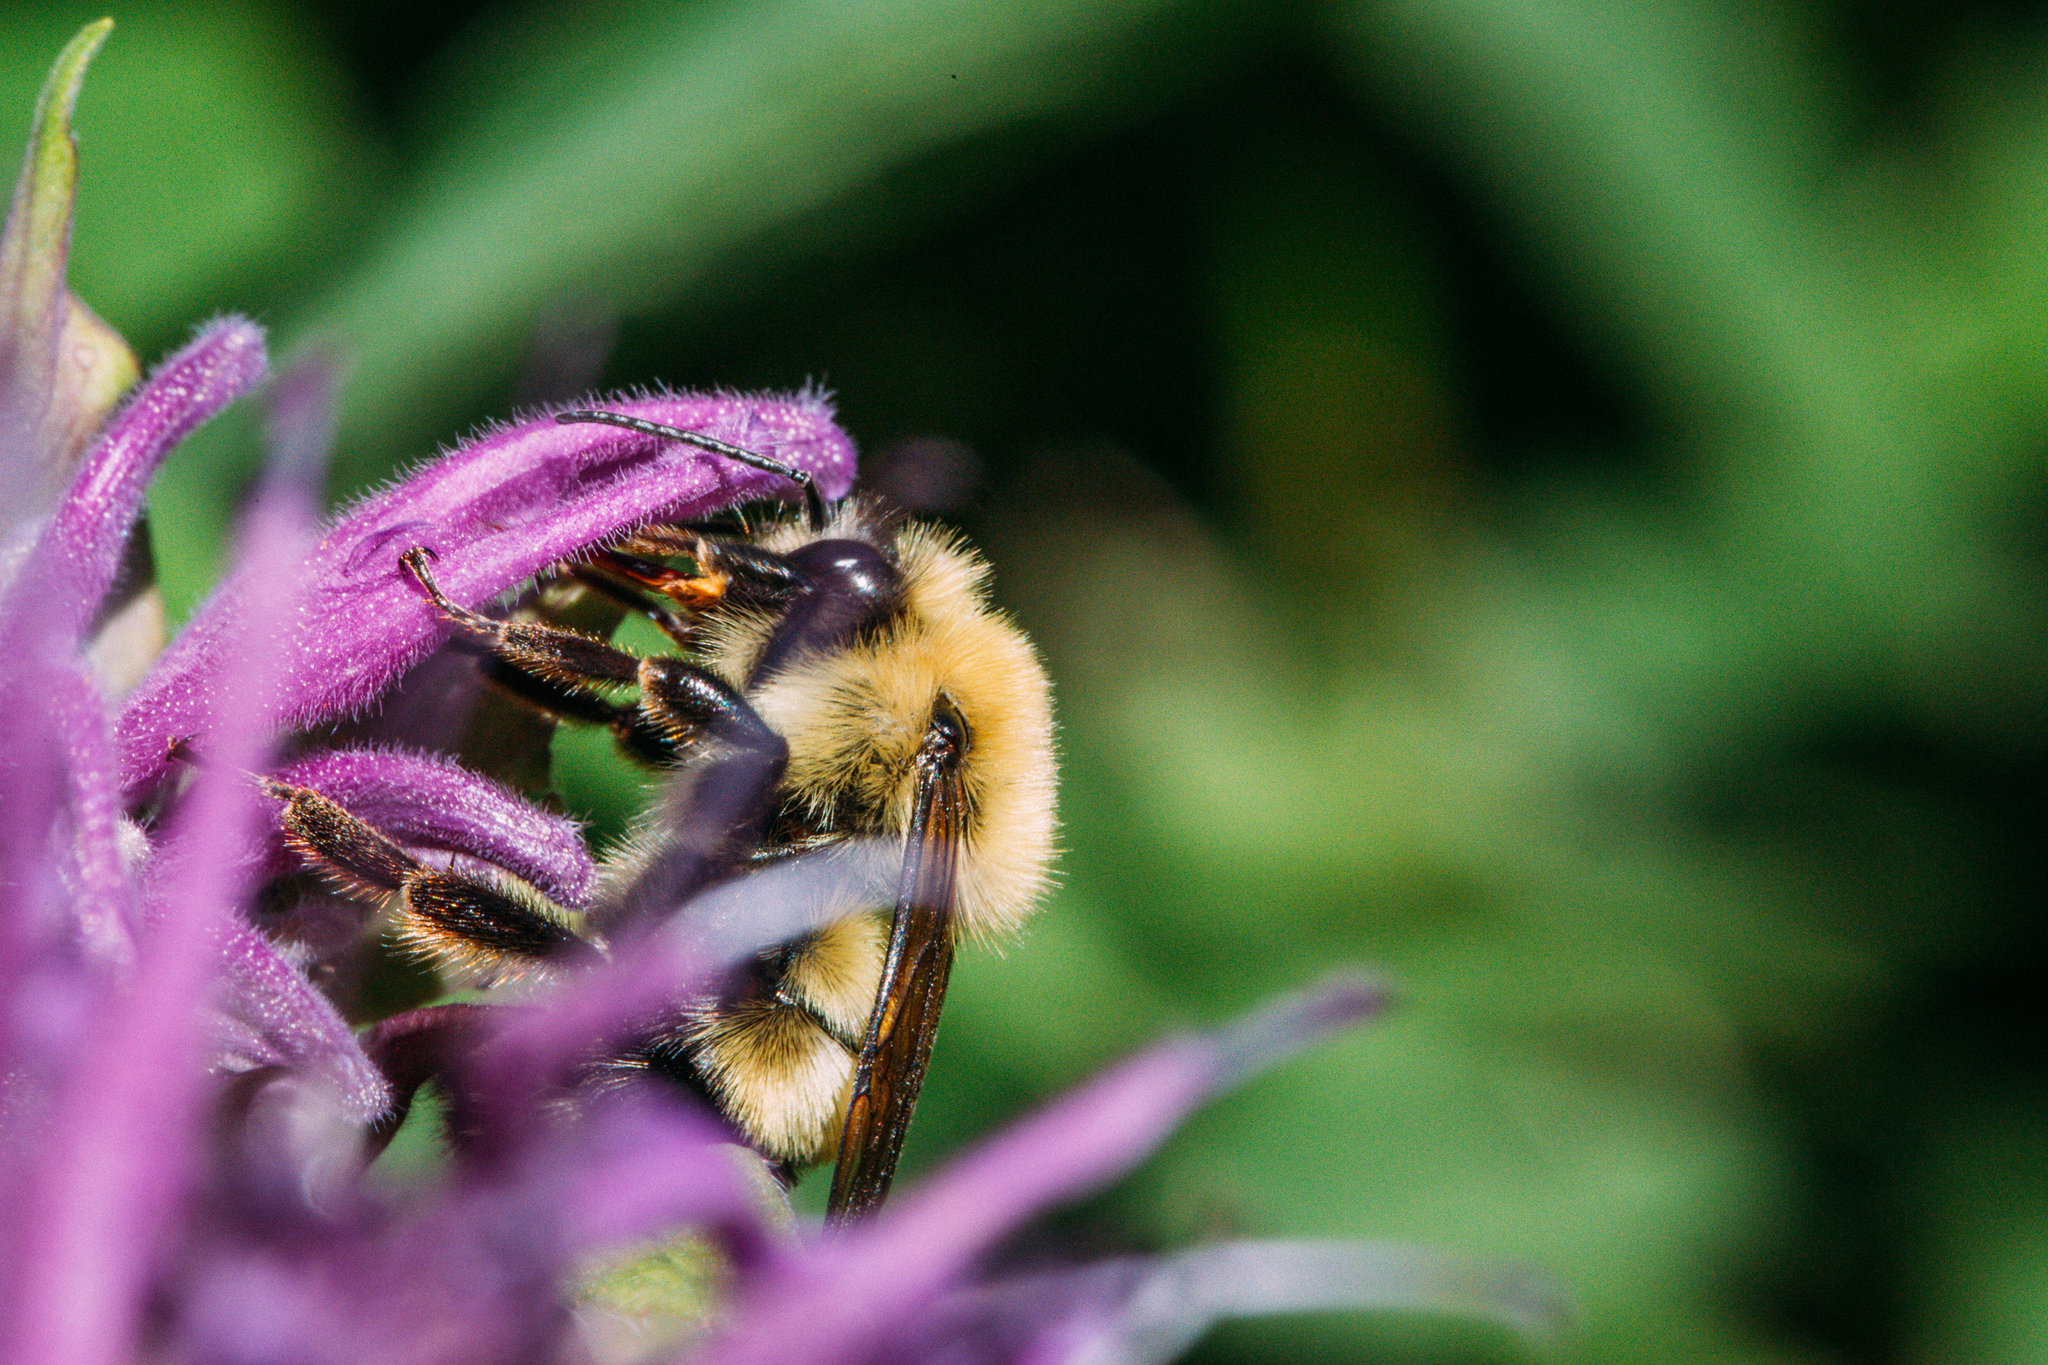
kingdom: Animalia
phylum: Arthropoda
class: Insecta
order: Hymenoptera
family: Apidae
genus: Bombus
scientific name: Bombus bimaculatus
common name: Two-spotted bumble bee
